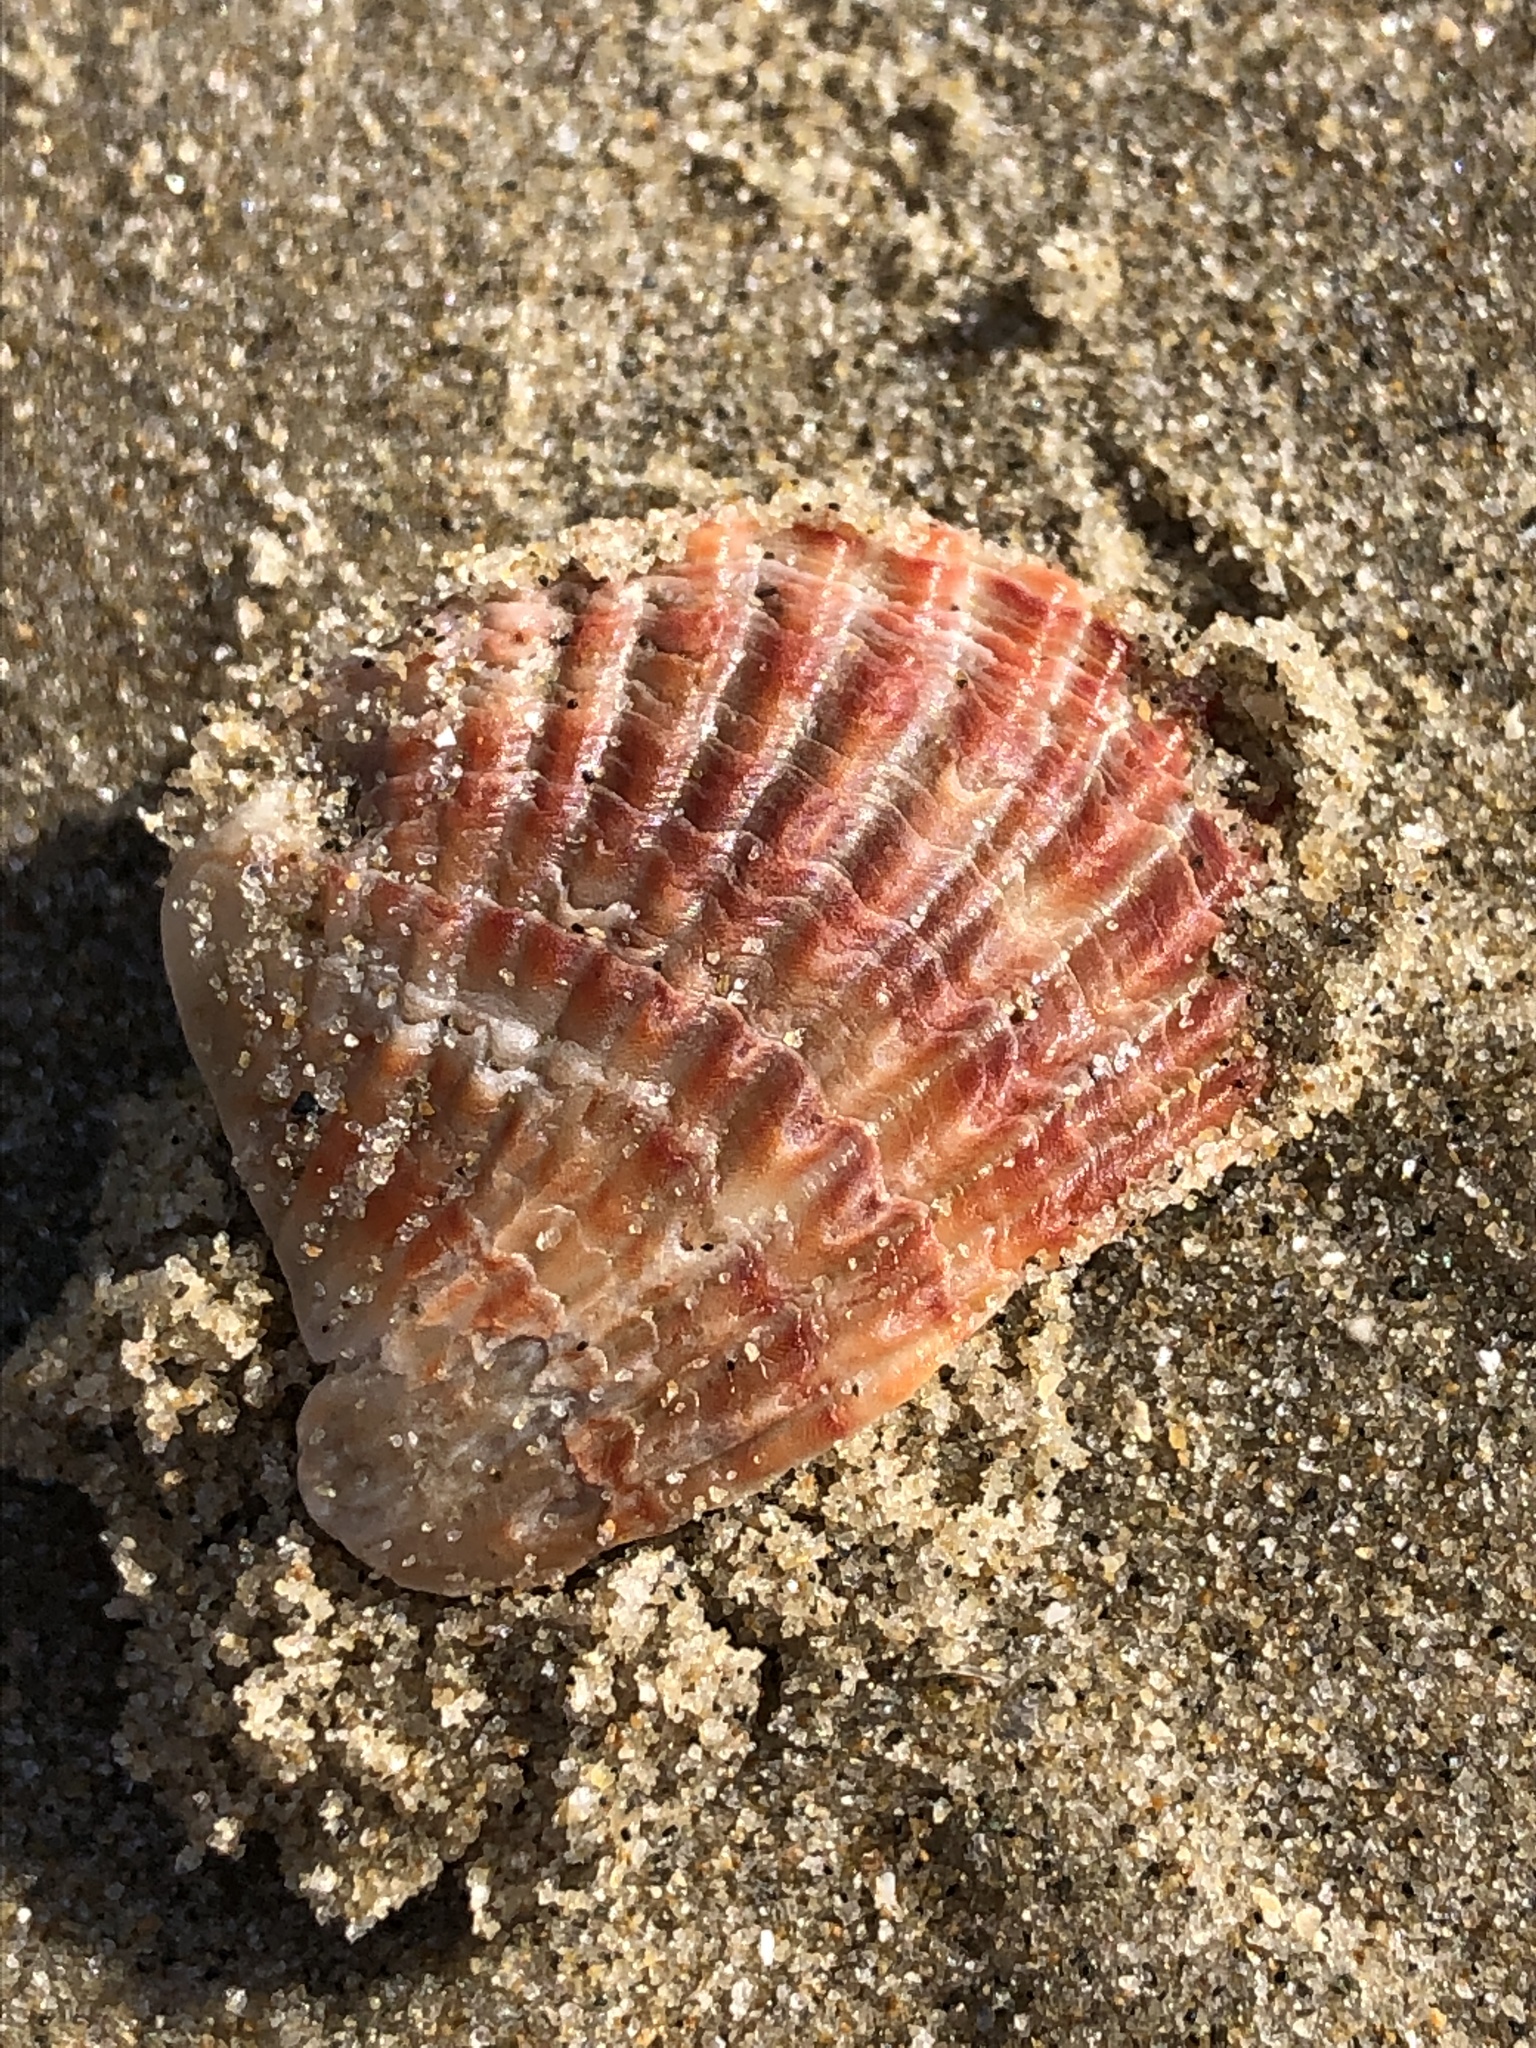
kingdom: Animalia
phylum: Brachiopoda
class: Rhynchonellata
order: Terebratulida
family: Terebrataliidae
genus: Coptothyris
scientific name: Coptothyris grayi
